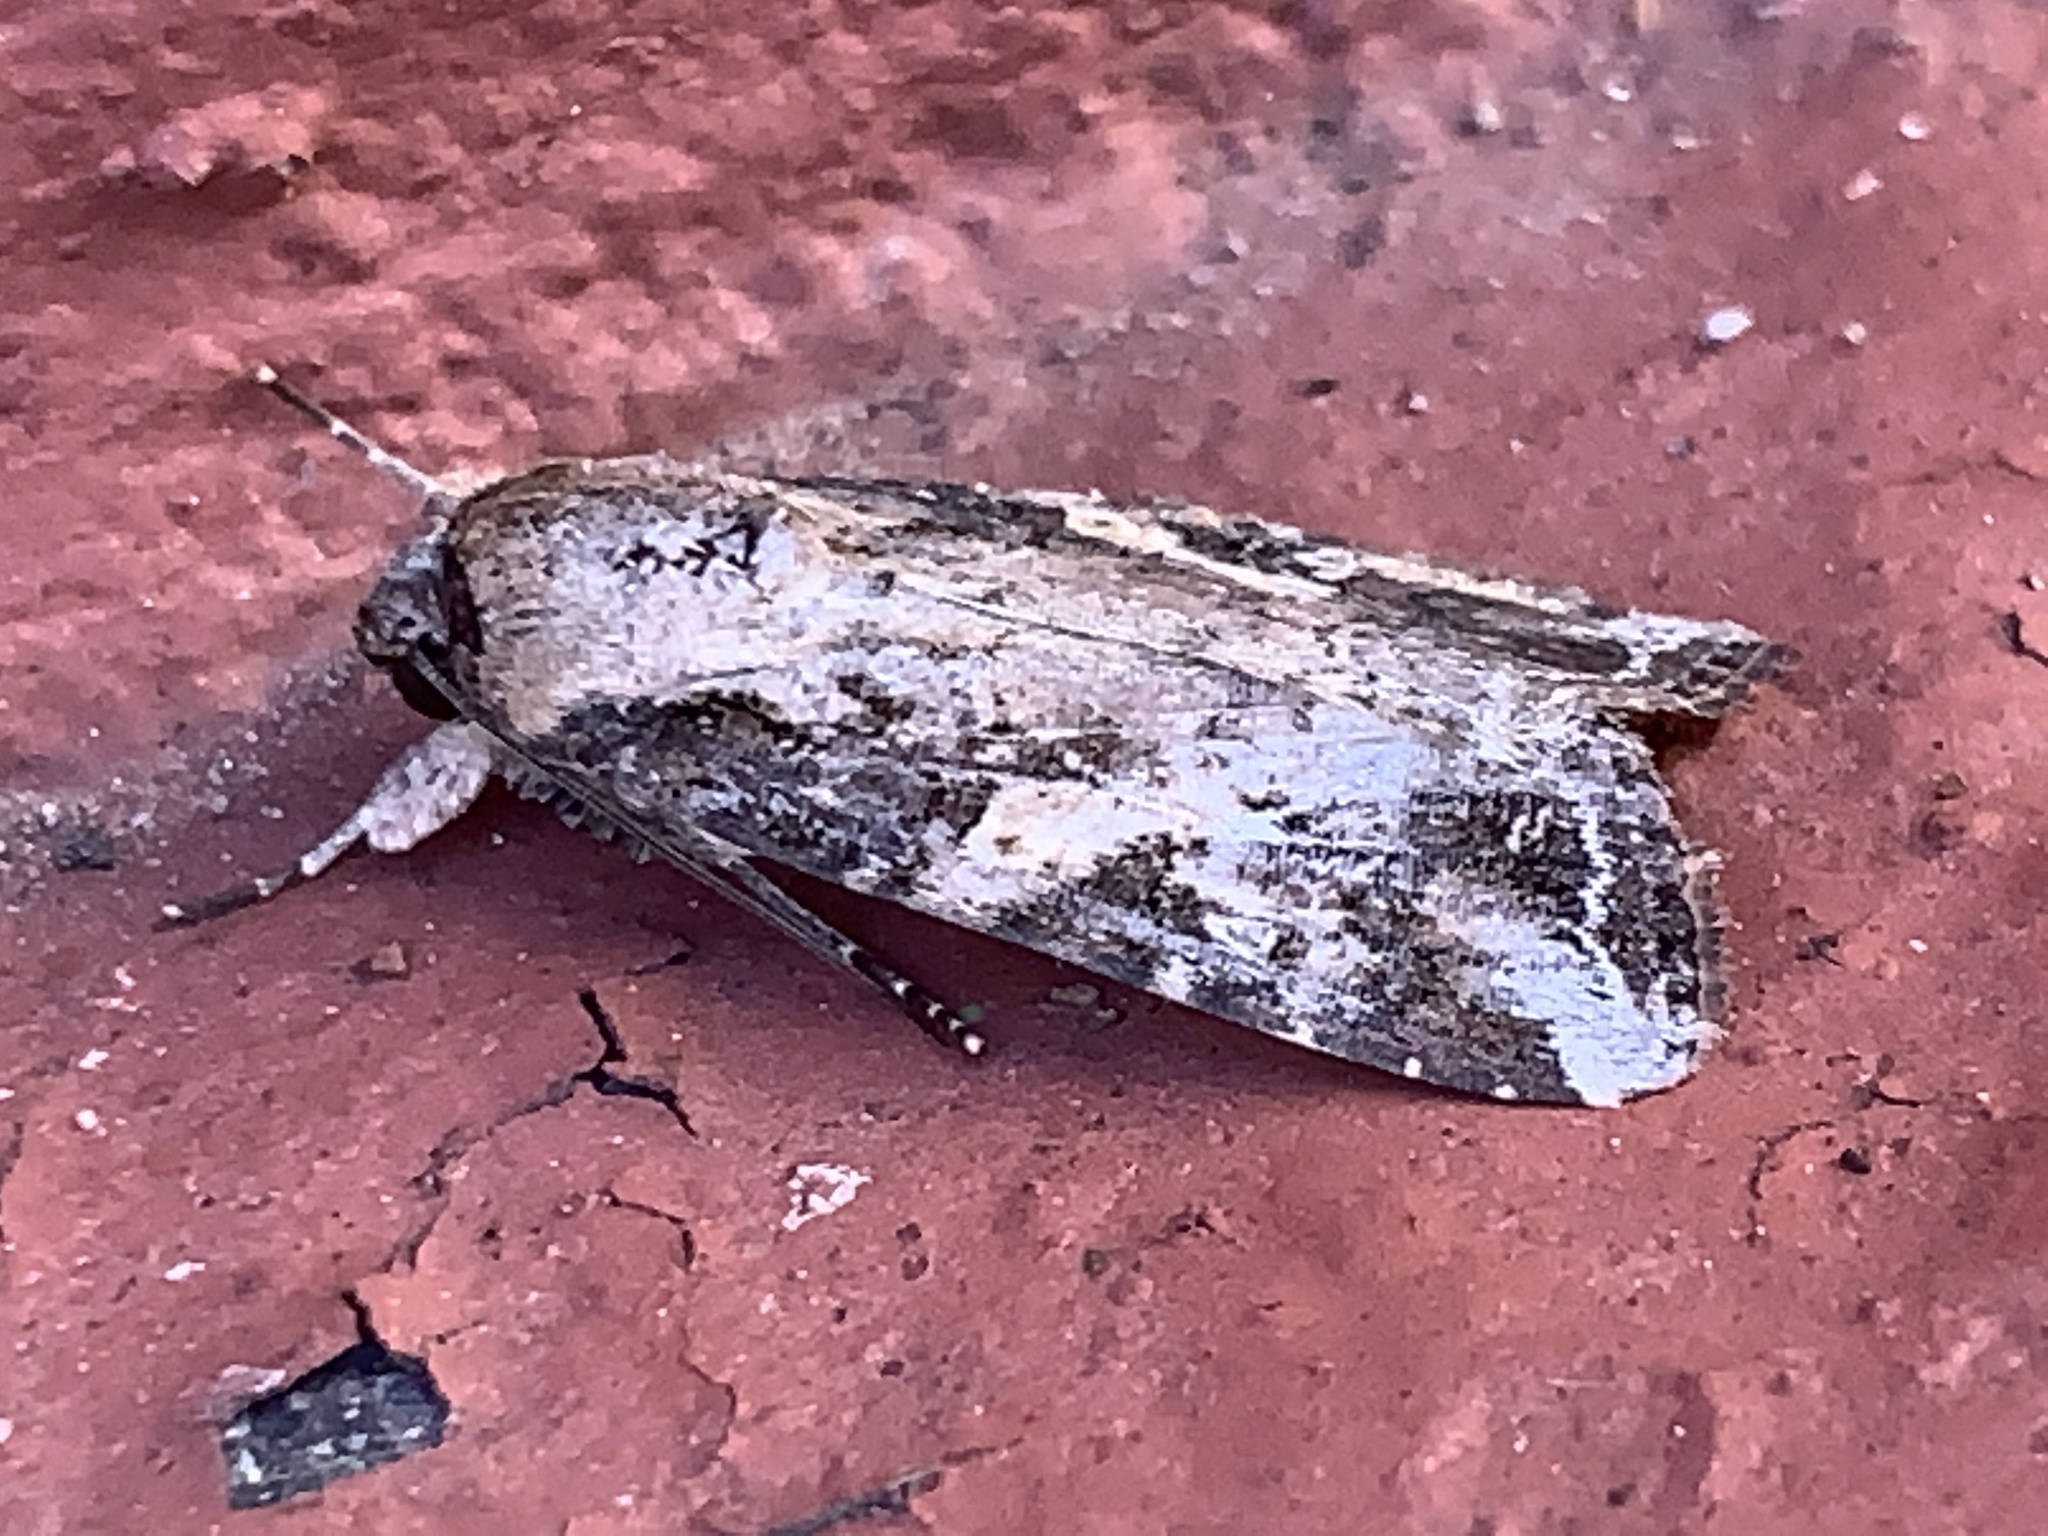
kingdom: Animalia
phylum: Arthropoda
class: Insecta
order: Lepidoptera
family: Noctuidae
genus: Spodoptera
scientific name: Spodoptera frugiperda
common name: Fall armyworm
